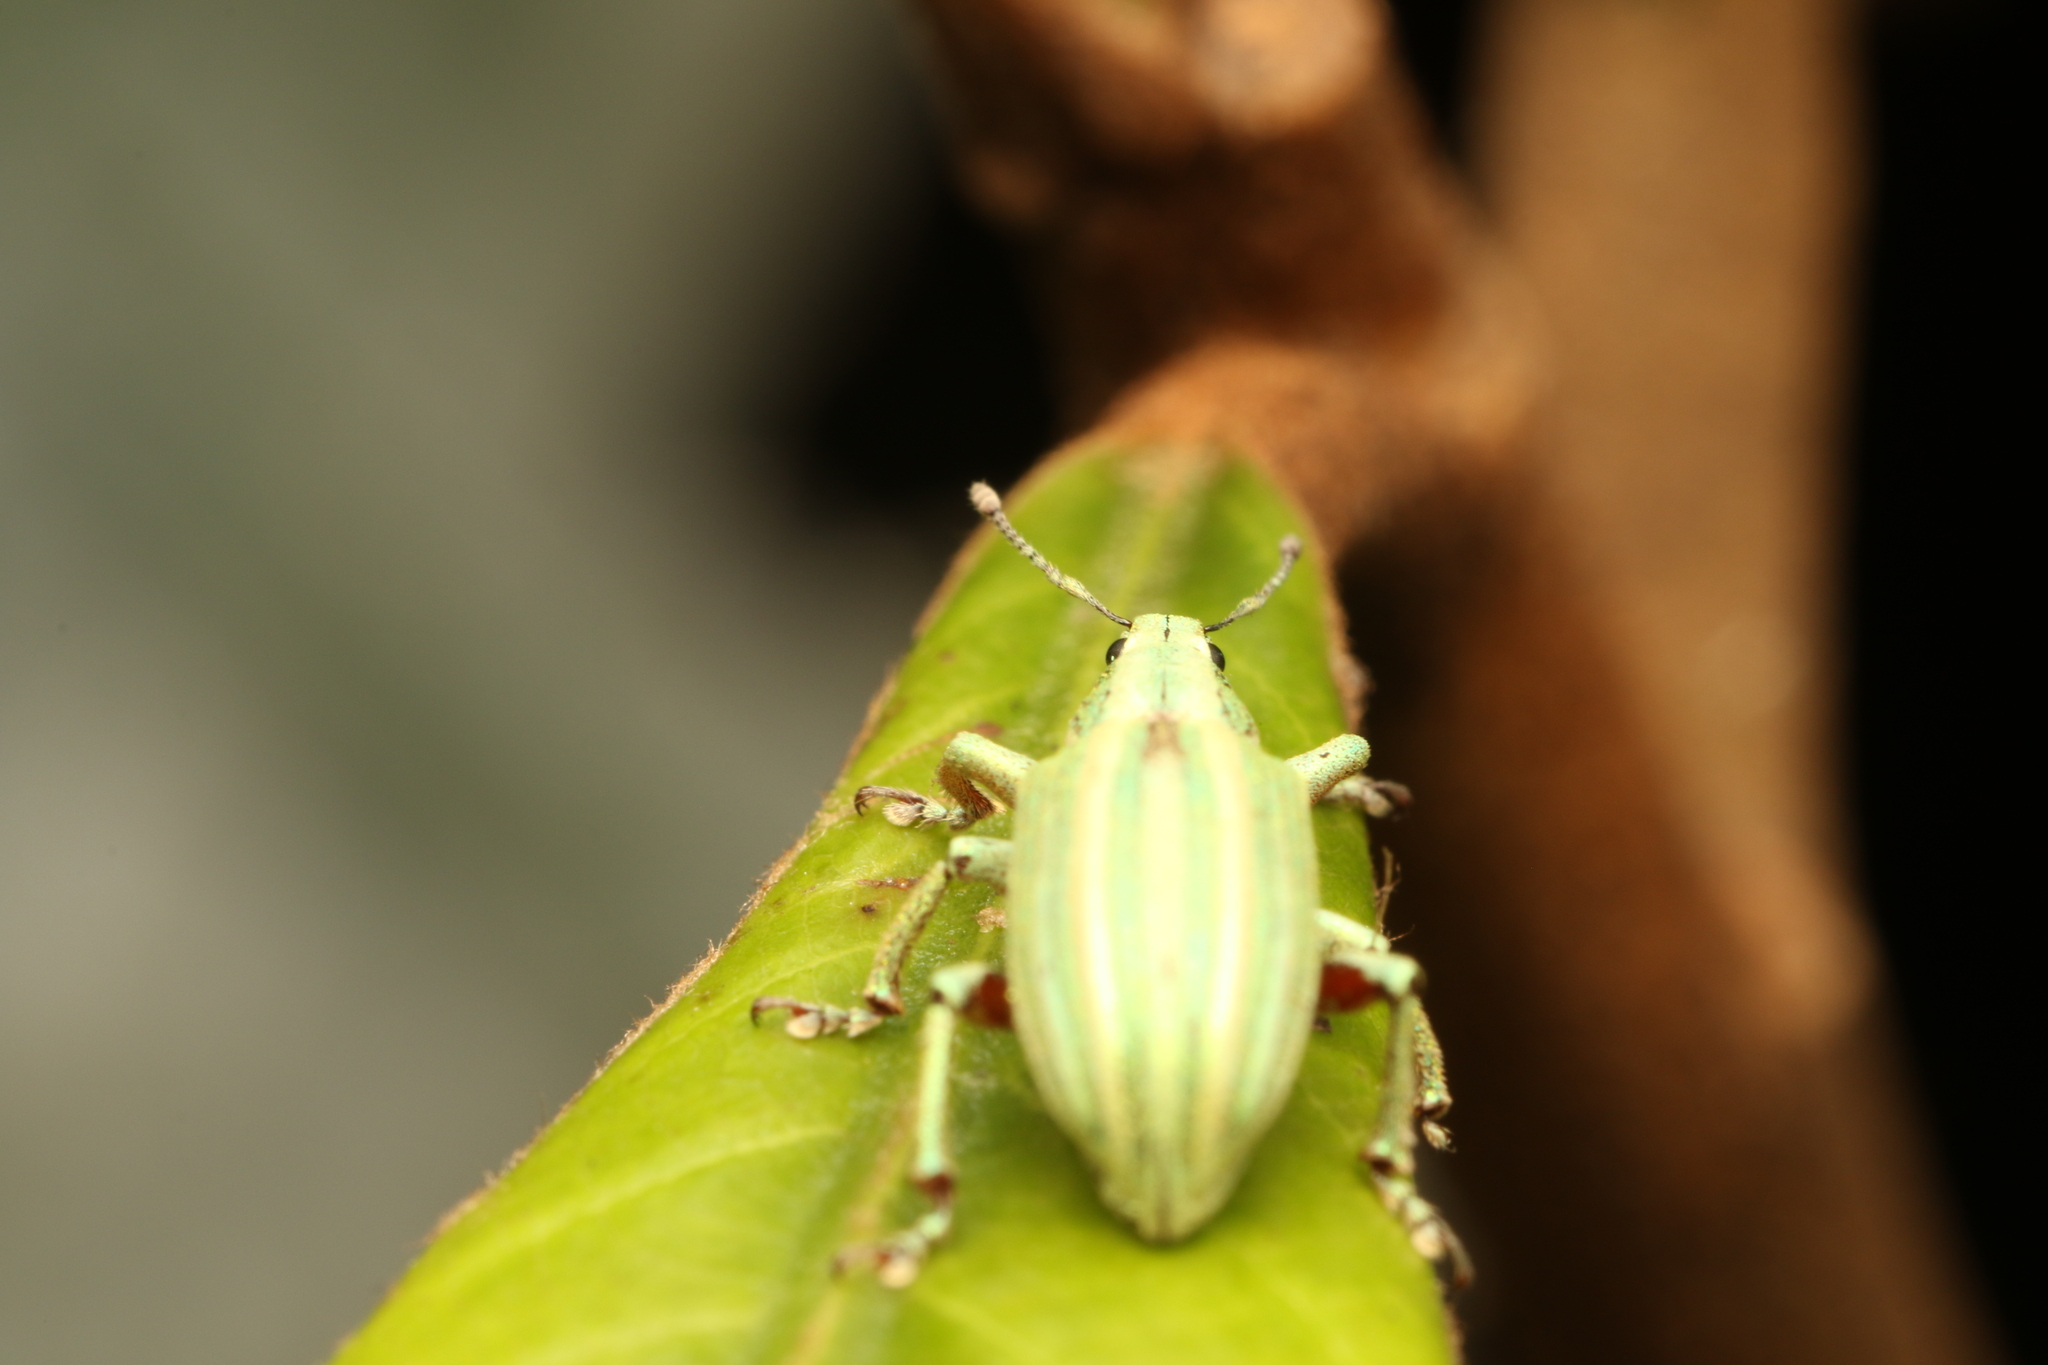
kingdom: Animalia
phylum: Arthropoda
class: Insecta
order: Coleoptera
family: Curculionidae
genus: Phaops
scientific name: Phaops thunbergii
